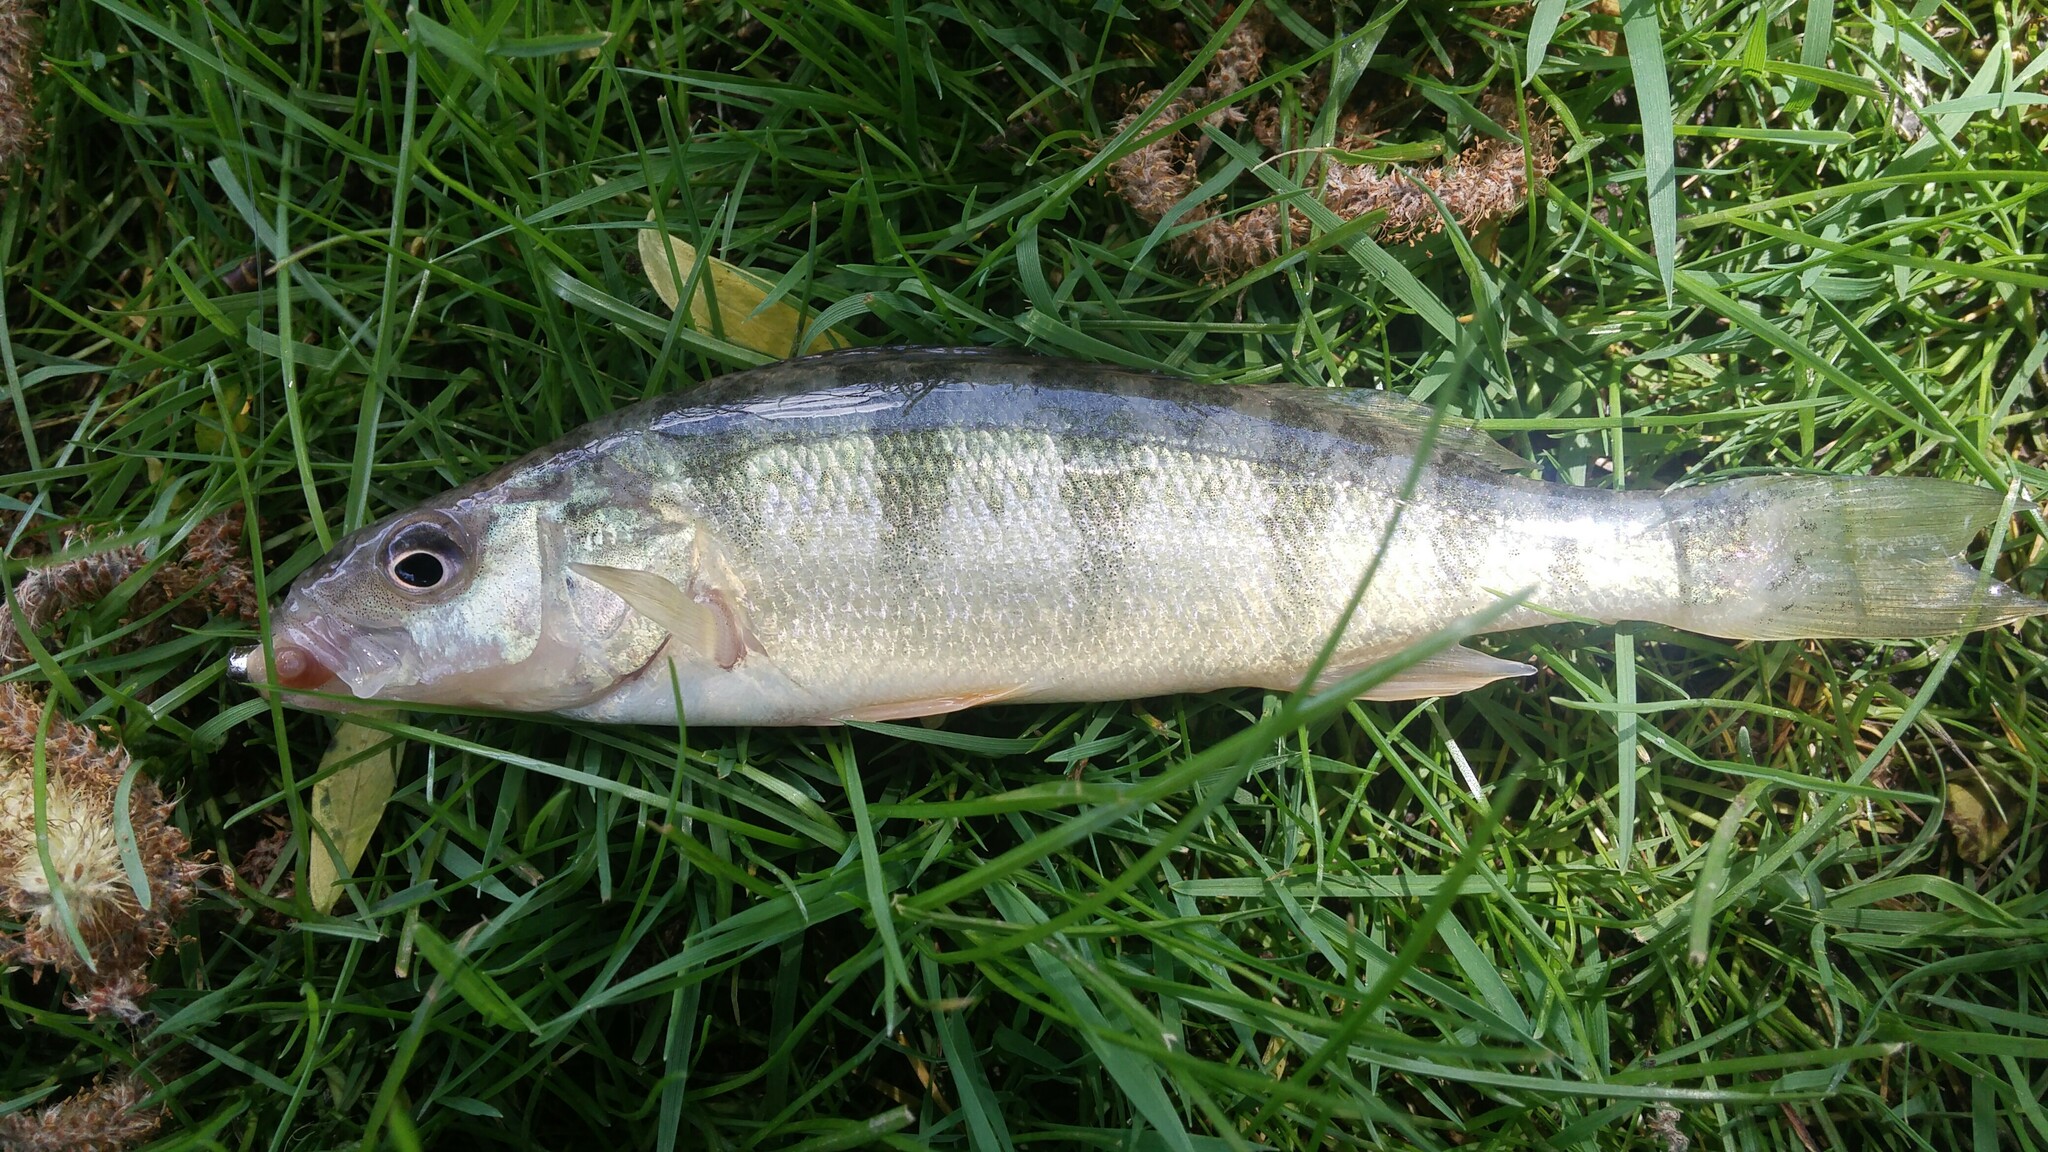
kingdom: Animalia
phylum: Chordata
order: Perciformes
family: Percidae
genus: Perca
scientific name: Perca flavescens
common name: Yellow perch
